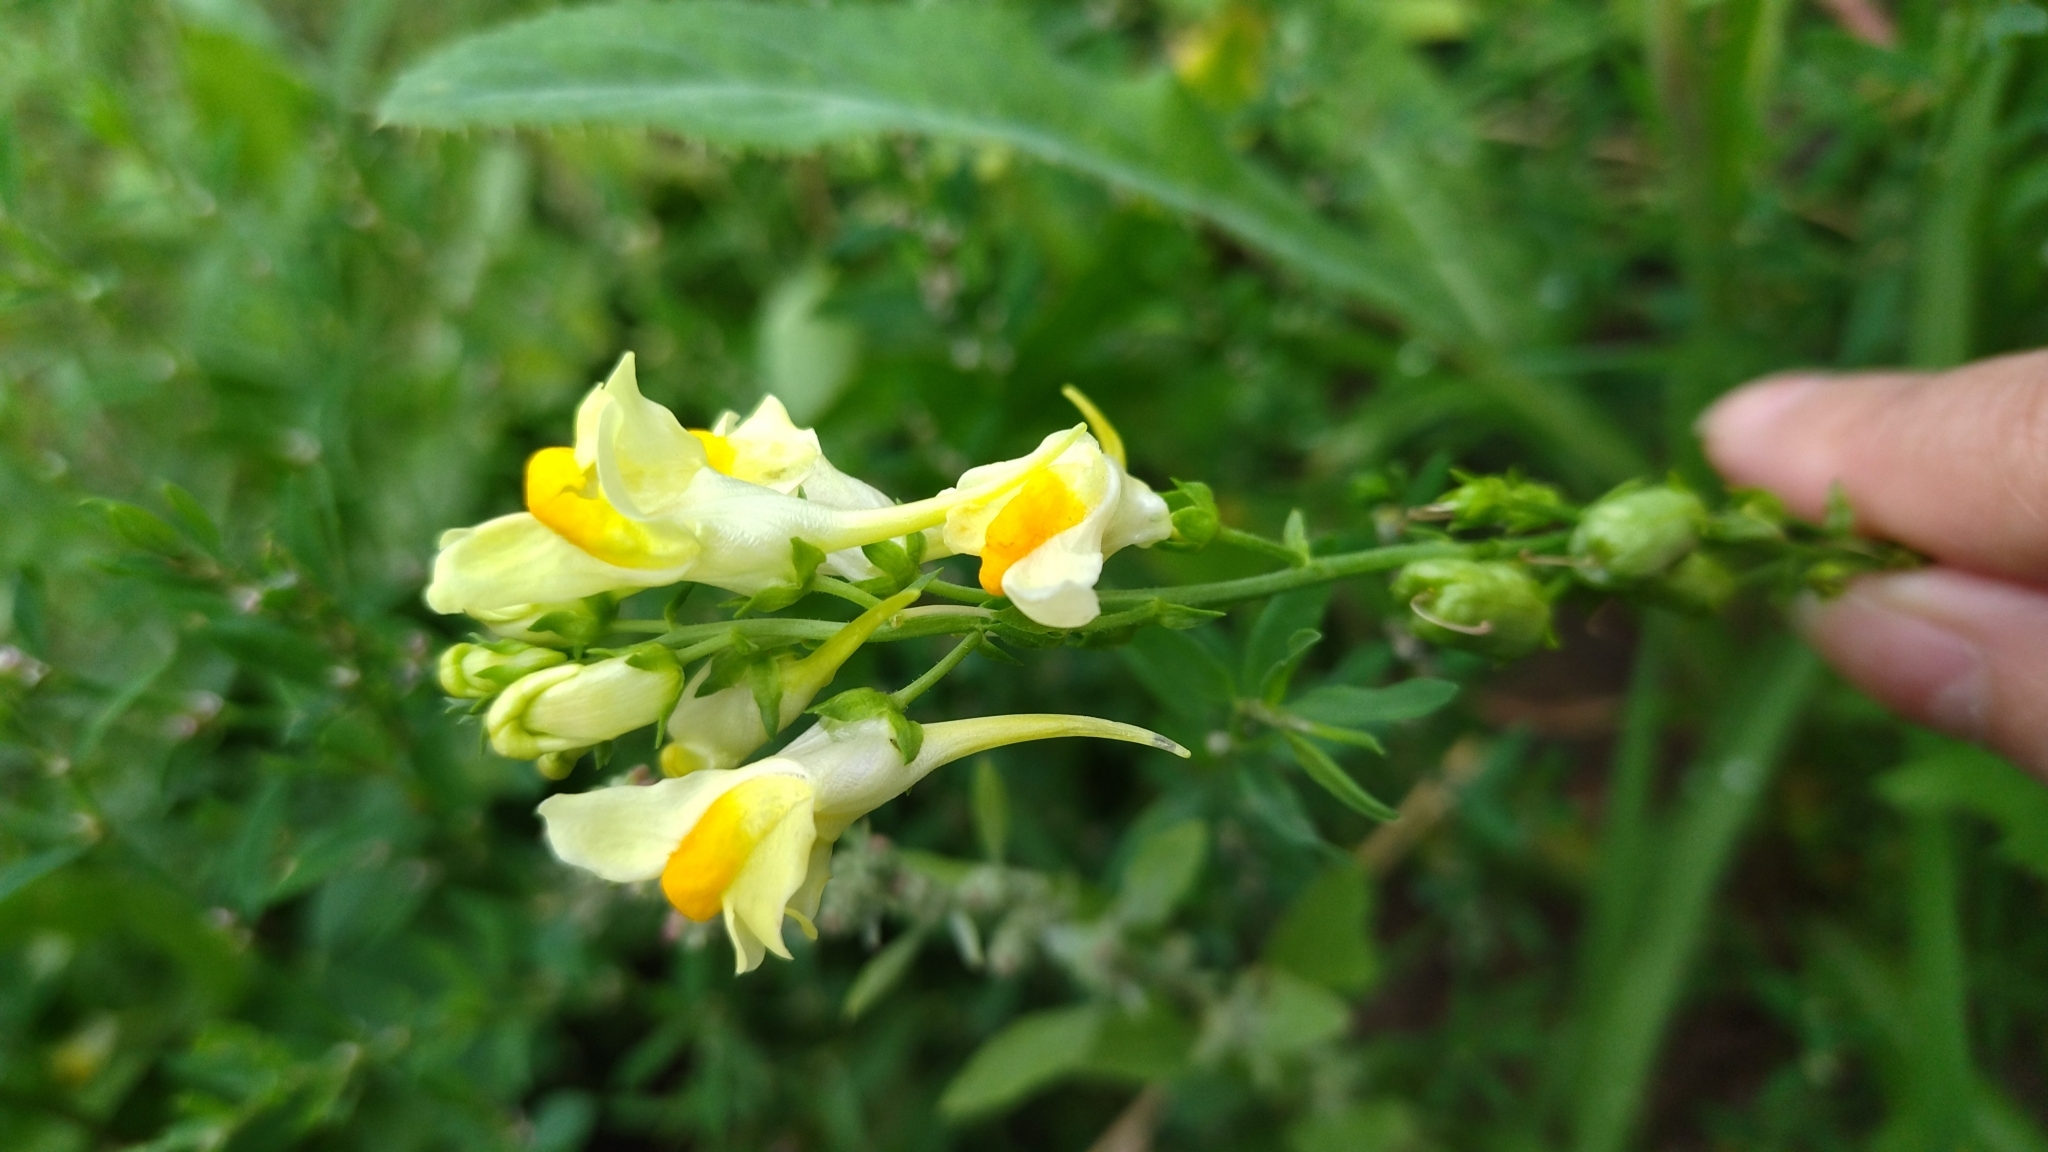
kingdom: Plantae
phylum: Tracheophyta
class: Magnoliopsida
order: Lamiales
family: Plantaginaceae
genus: Linaria
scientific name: Linaria vulgaris
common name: Butter and eggs
